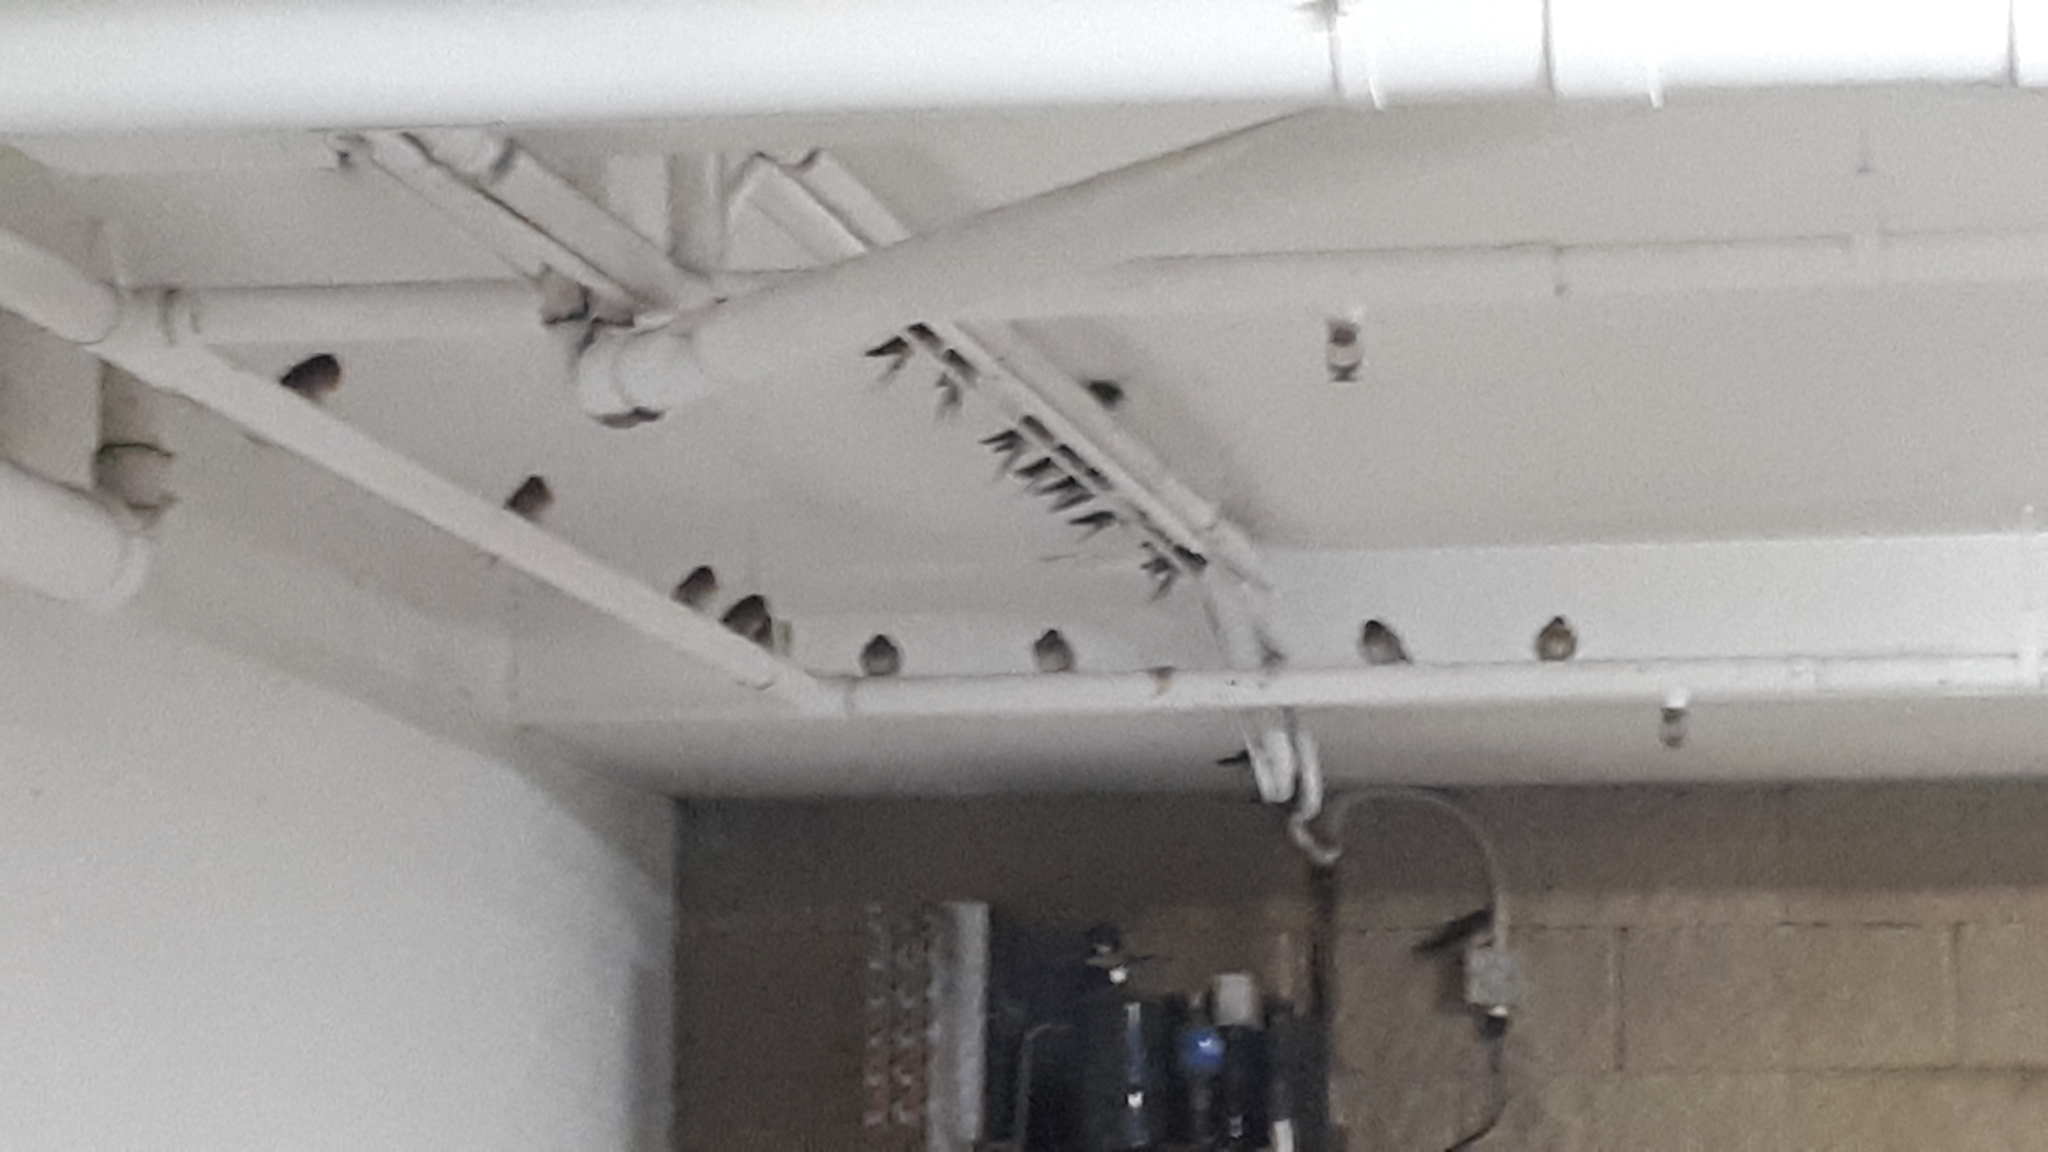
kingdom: Animalia
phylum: Chordata
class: Aves
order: Passeriformes
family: Hirundinidae
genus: Hirundo
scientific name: Hirundo neoxena
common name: Welcome swallow
